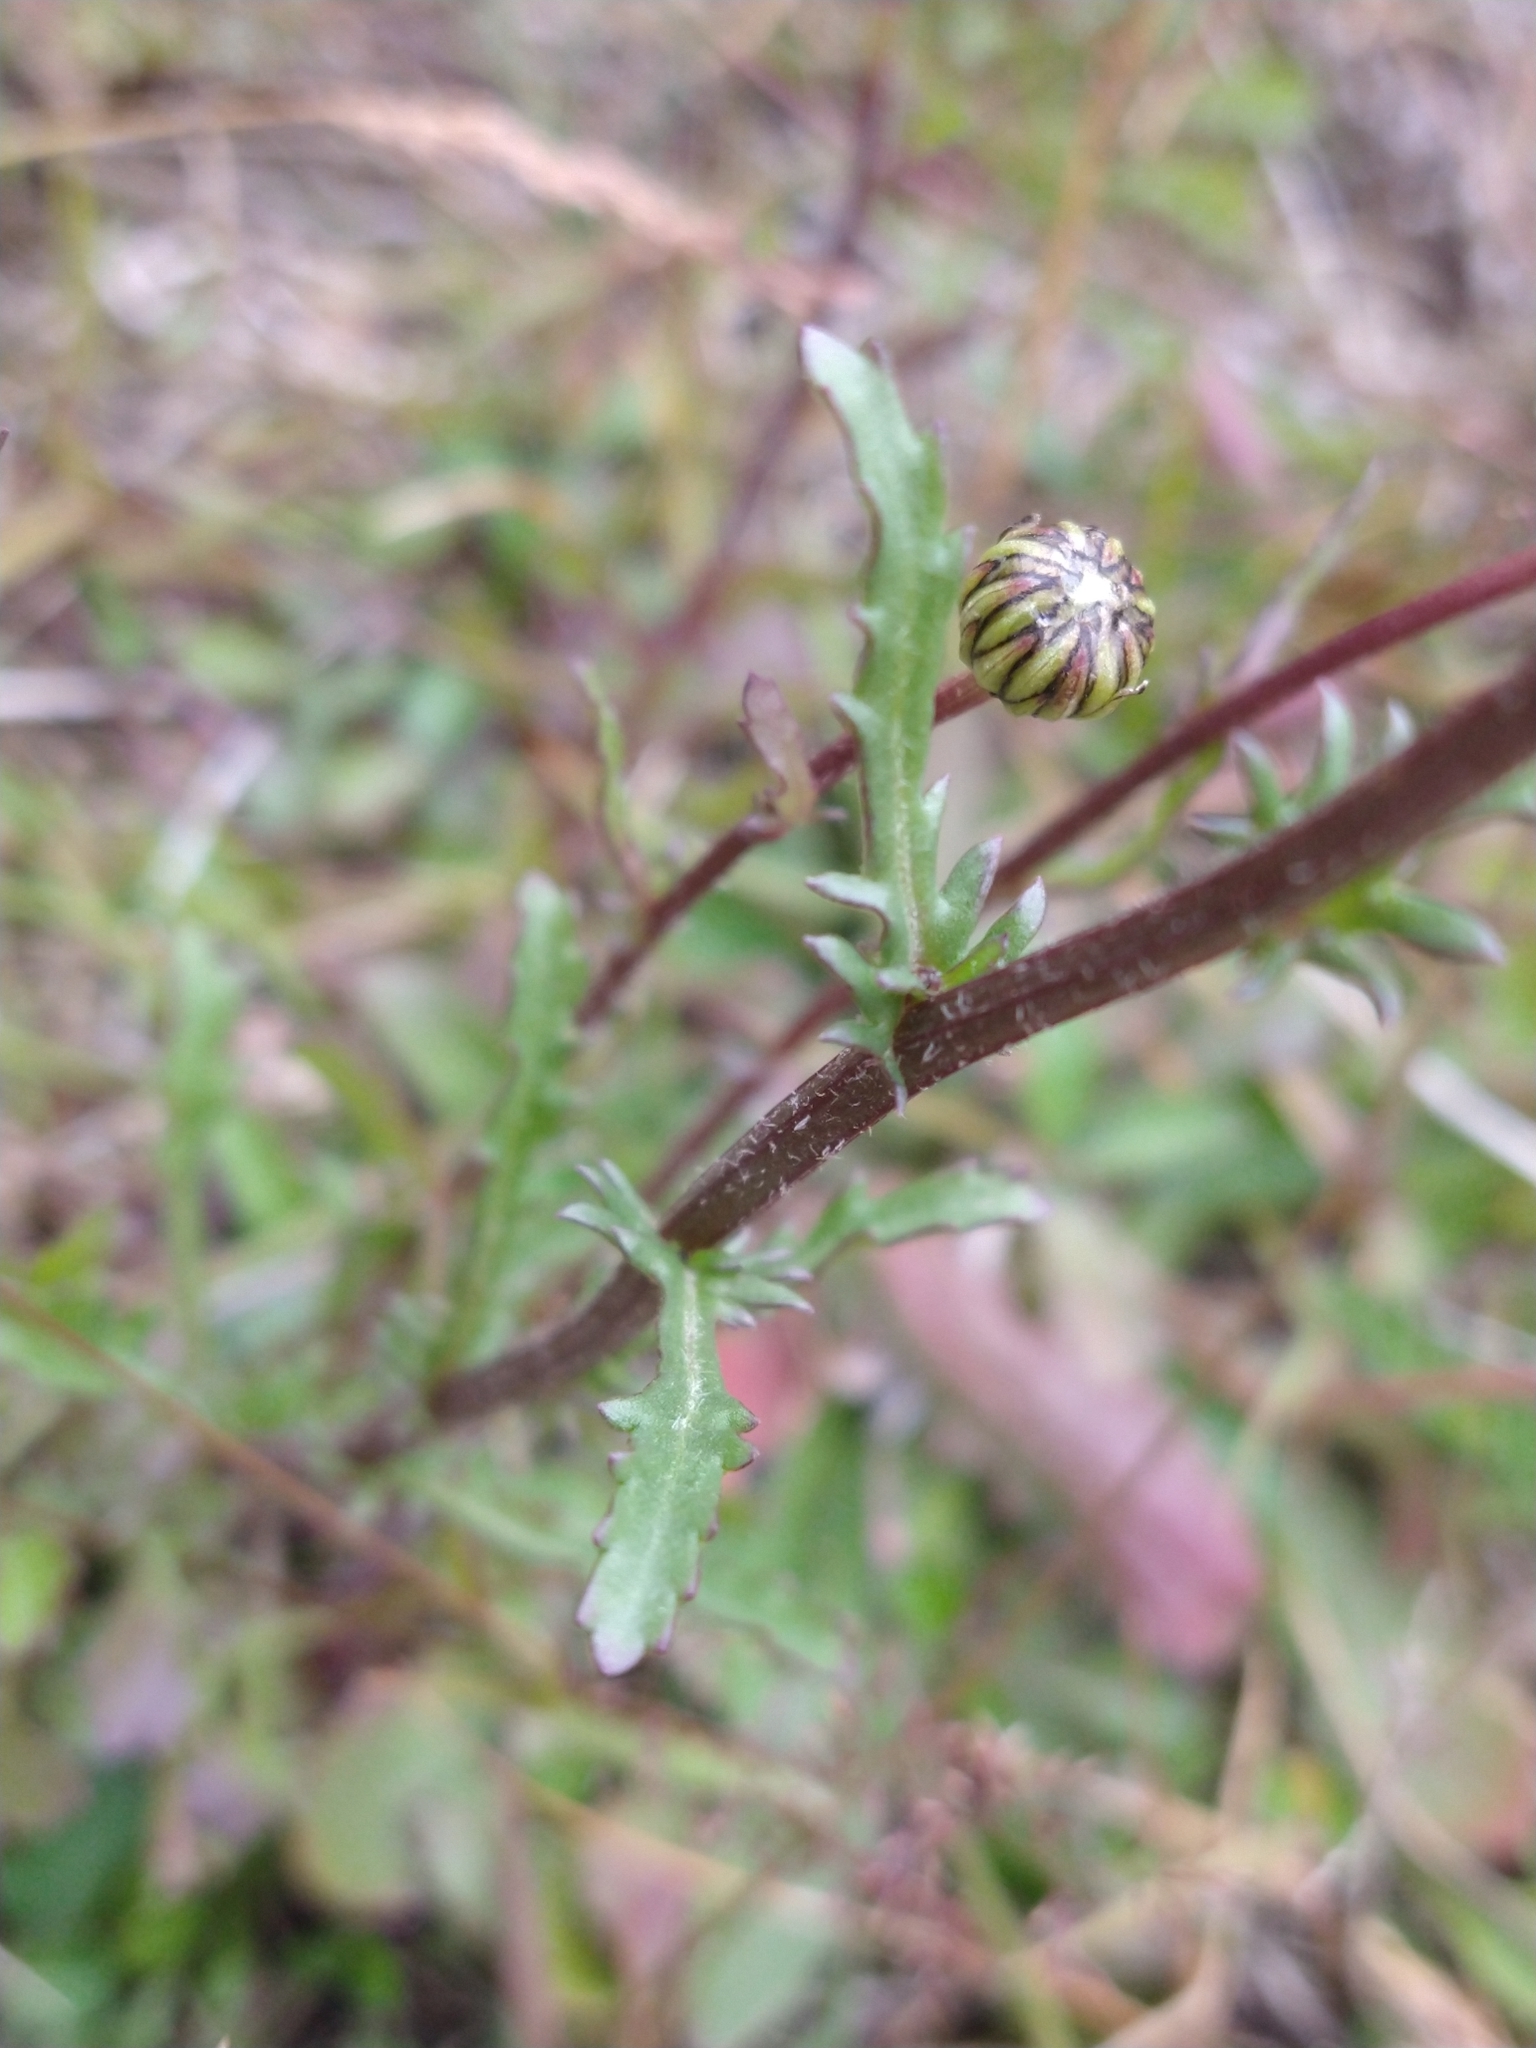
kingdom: Plantae
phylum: Tracheophyta
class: Magnoliopsida
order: Asterales
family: Asteraceae
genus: Leucanthemum
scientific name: Leucanthemum vulgare
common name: Oxeye daisy
